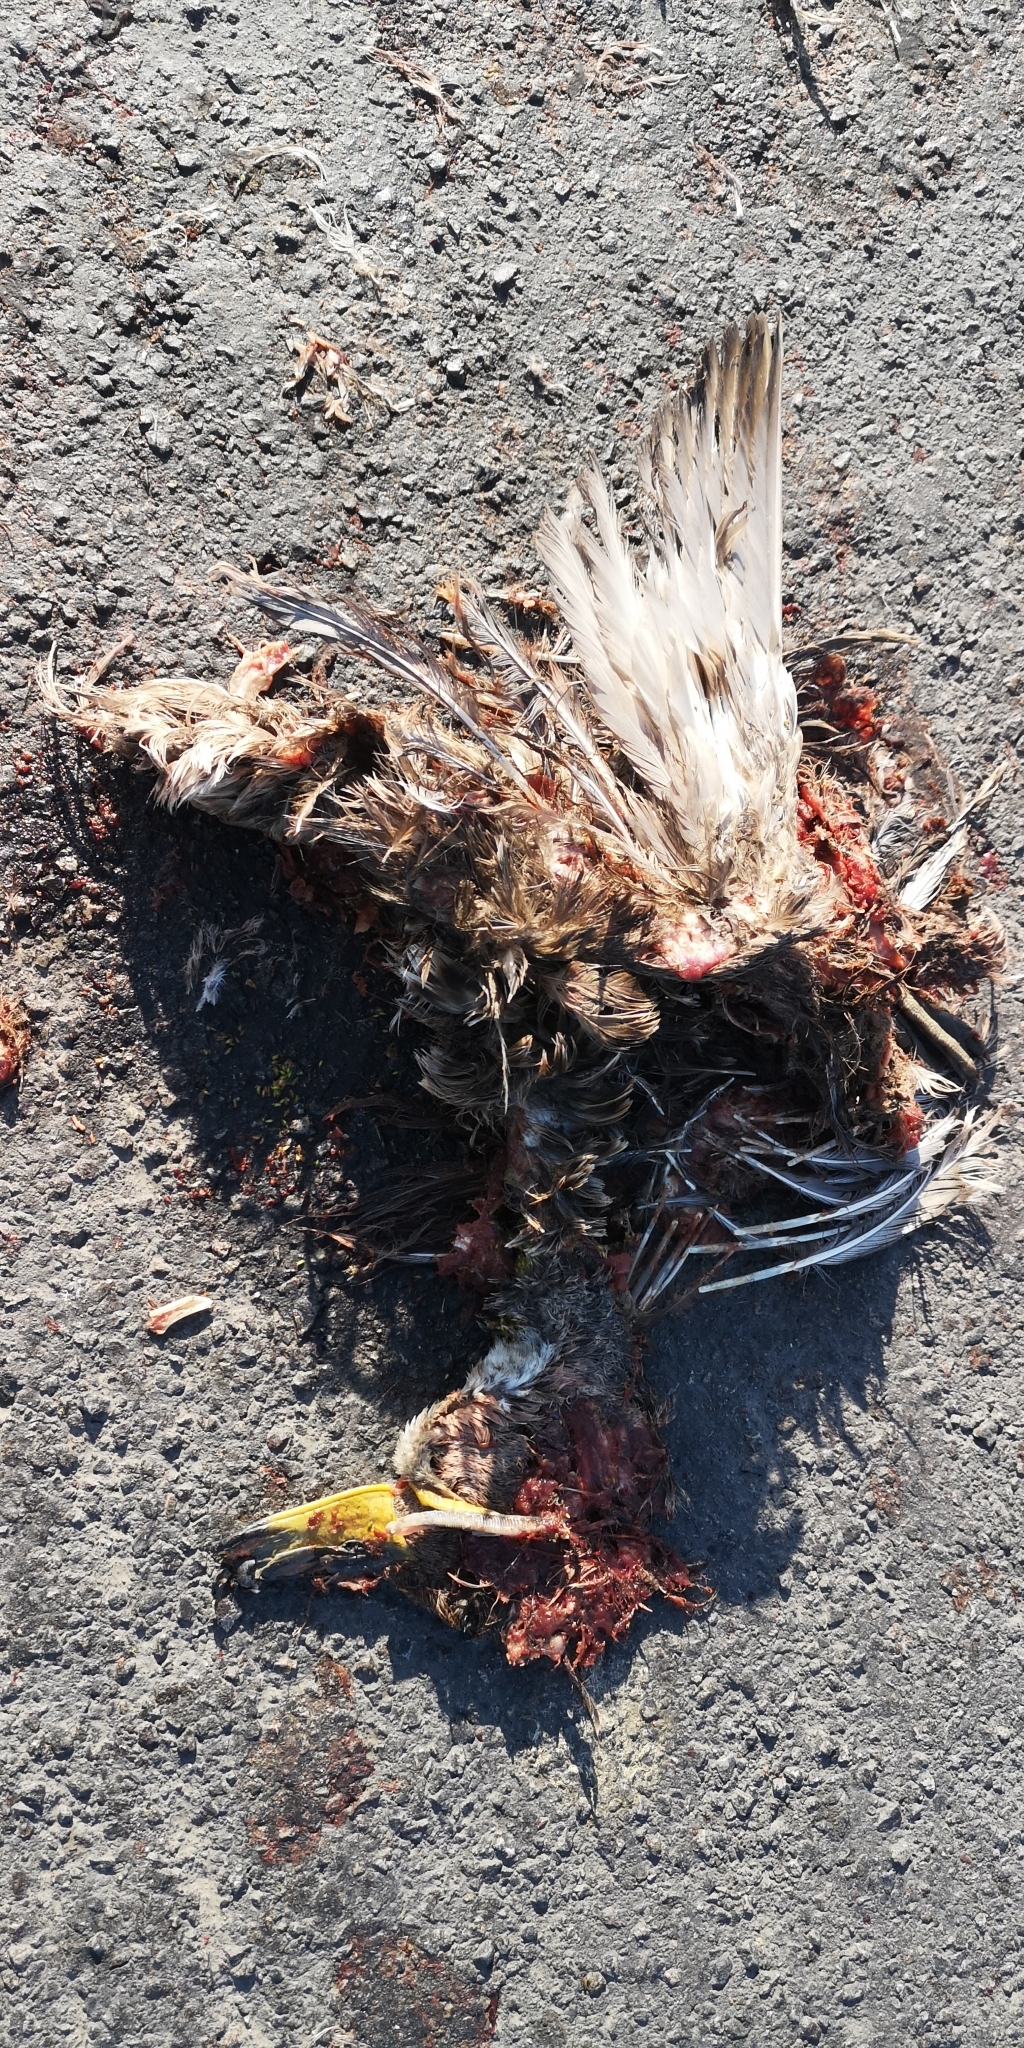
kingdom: Animalia
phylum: Chordata
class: Aves
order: Anseriformes
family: Anatidae
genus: Anas
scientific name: Anas georgica
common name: Yellow-billed pintail
